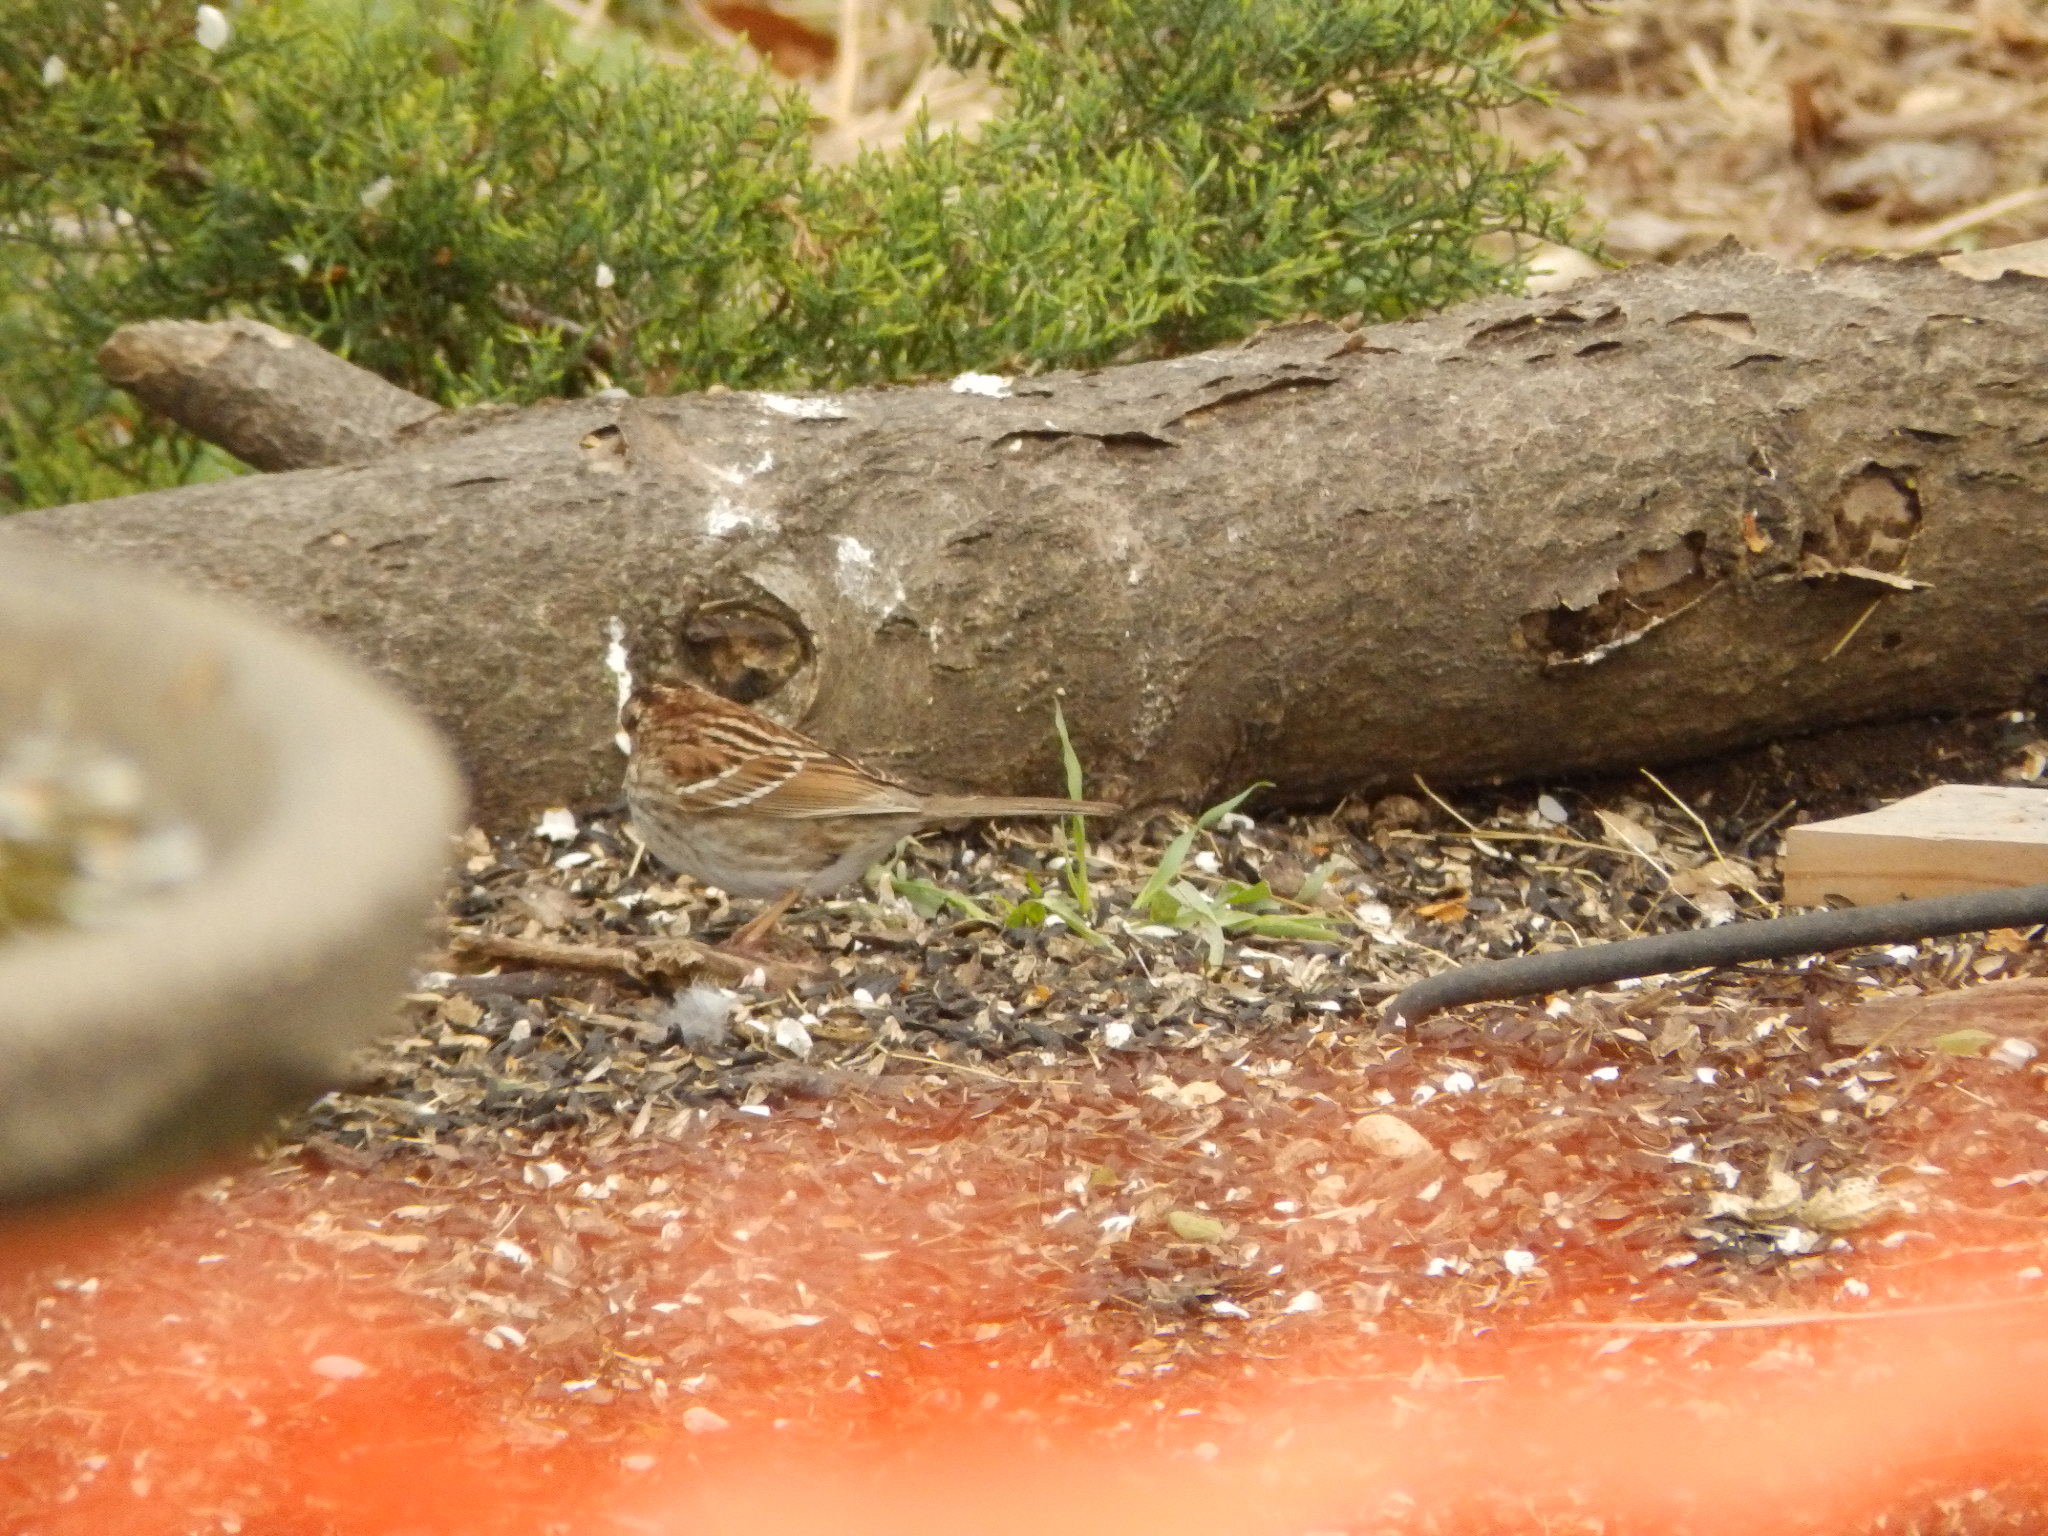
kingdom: Animalia
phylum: Chordata
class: Aves
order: Passeriformes
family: Passerellidae
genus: Zonotrichia
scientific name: Zonotrichia albicollis
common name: White-throated sparrow
